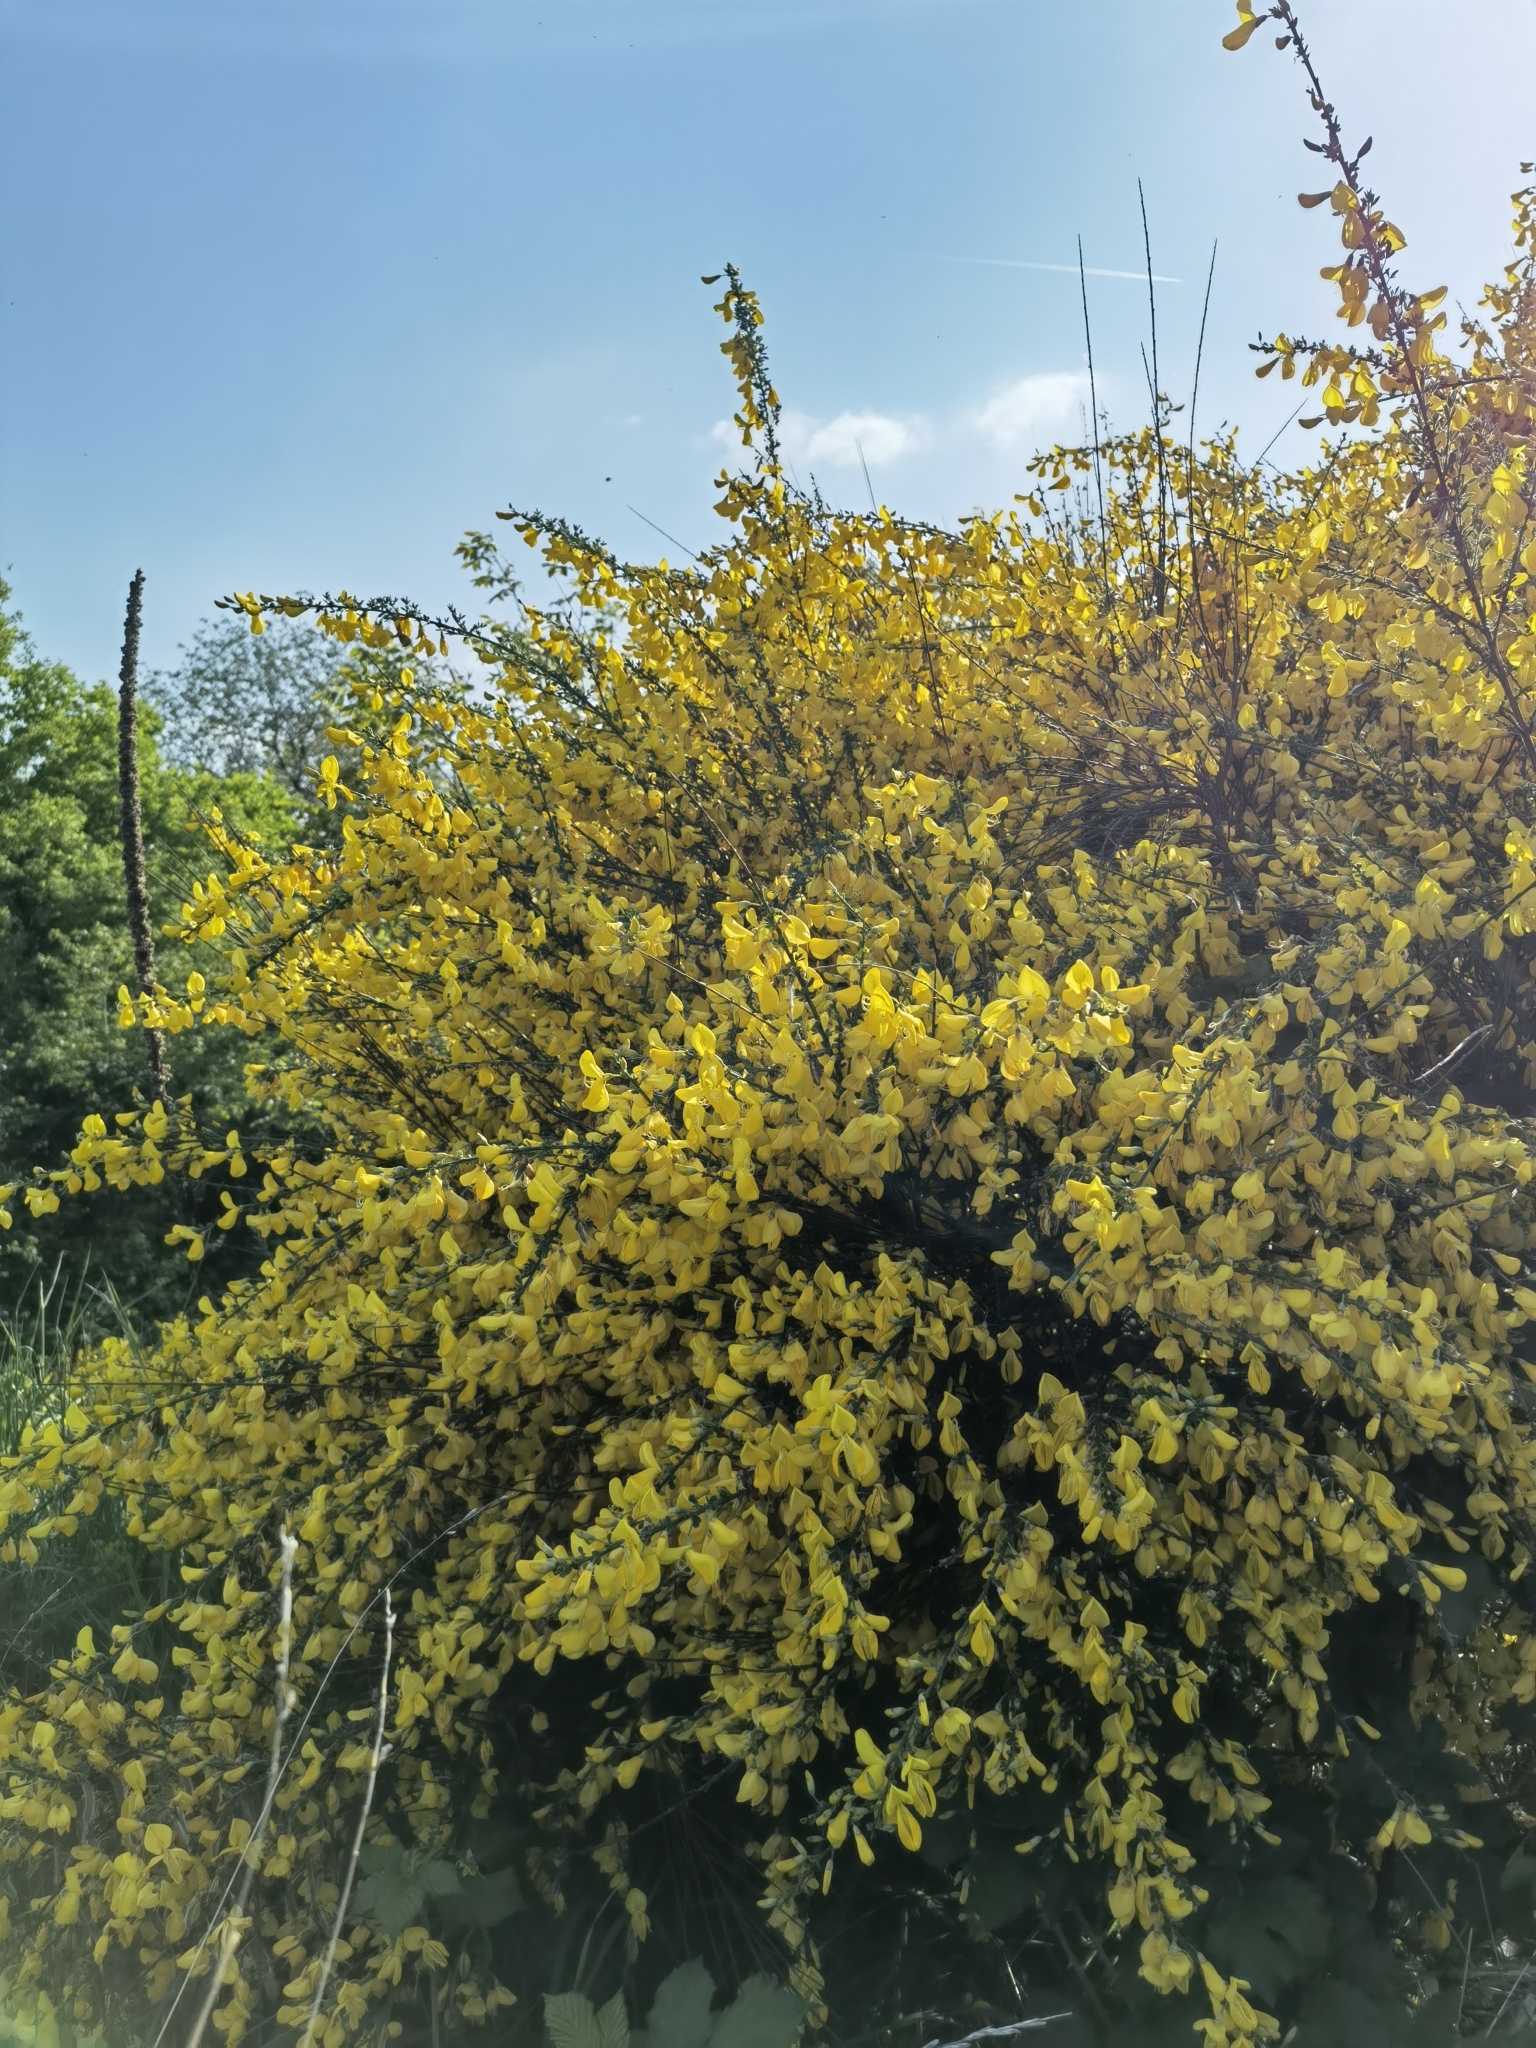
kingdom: Plantae
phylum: Tracheophyta
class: Magnoliopsida
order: Fabales
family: Fabaceae
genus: Cytisus
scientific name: Cytisus scoparius
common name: Scotch broom
